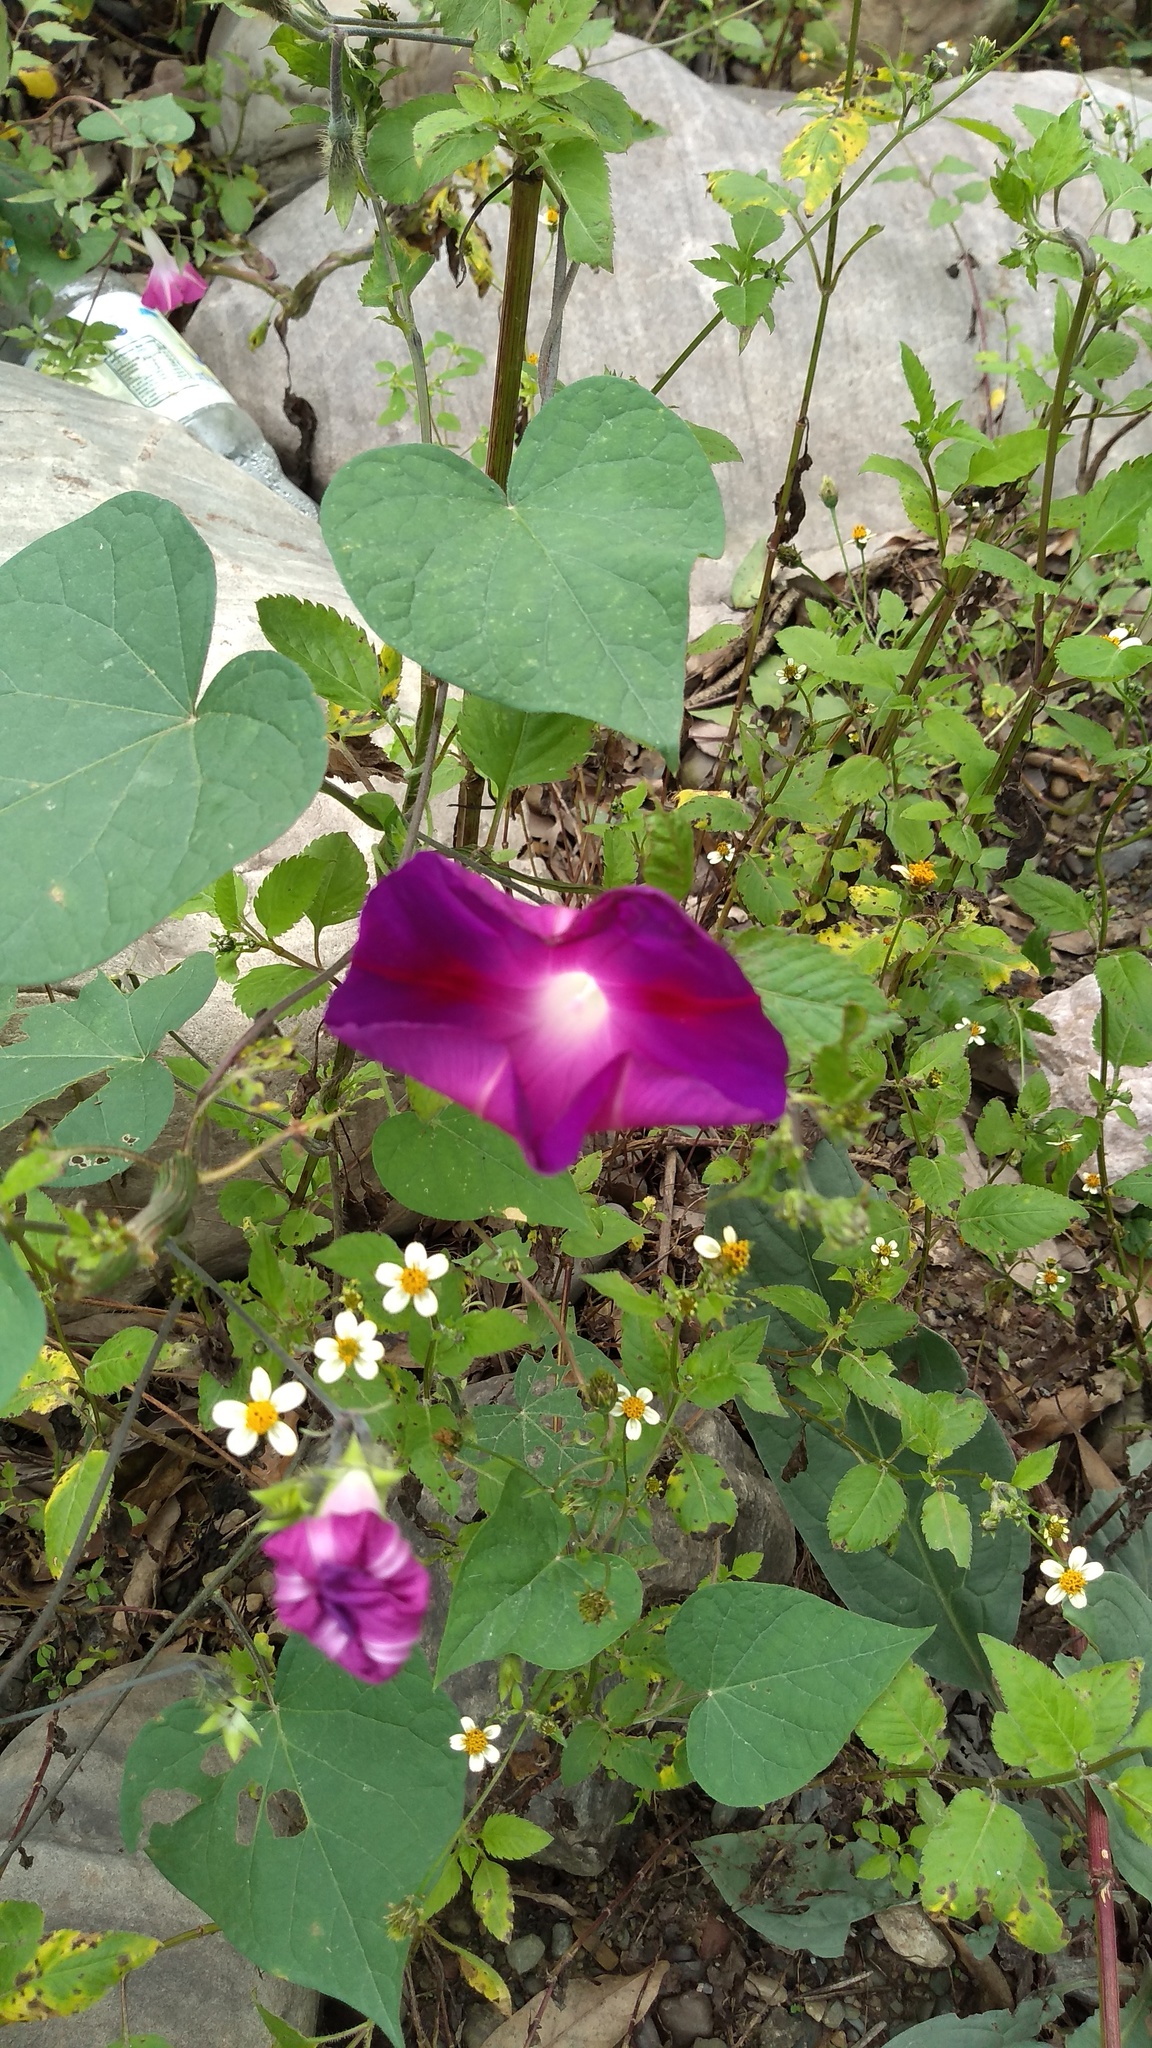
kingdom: Plantae
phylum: Tracheophyta
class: Magnoliopsida
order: Solanales
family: Convolvulaceae
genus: Ipomoea
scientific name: Ipomoea purpurea
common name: Common morning-glory
